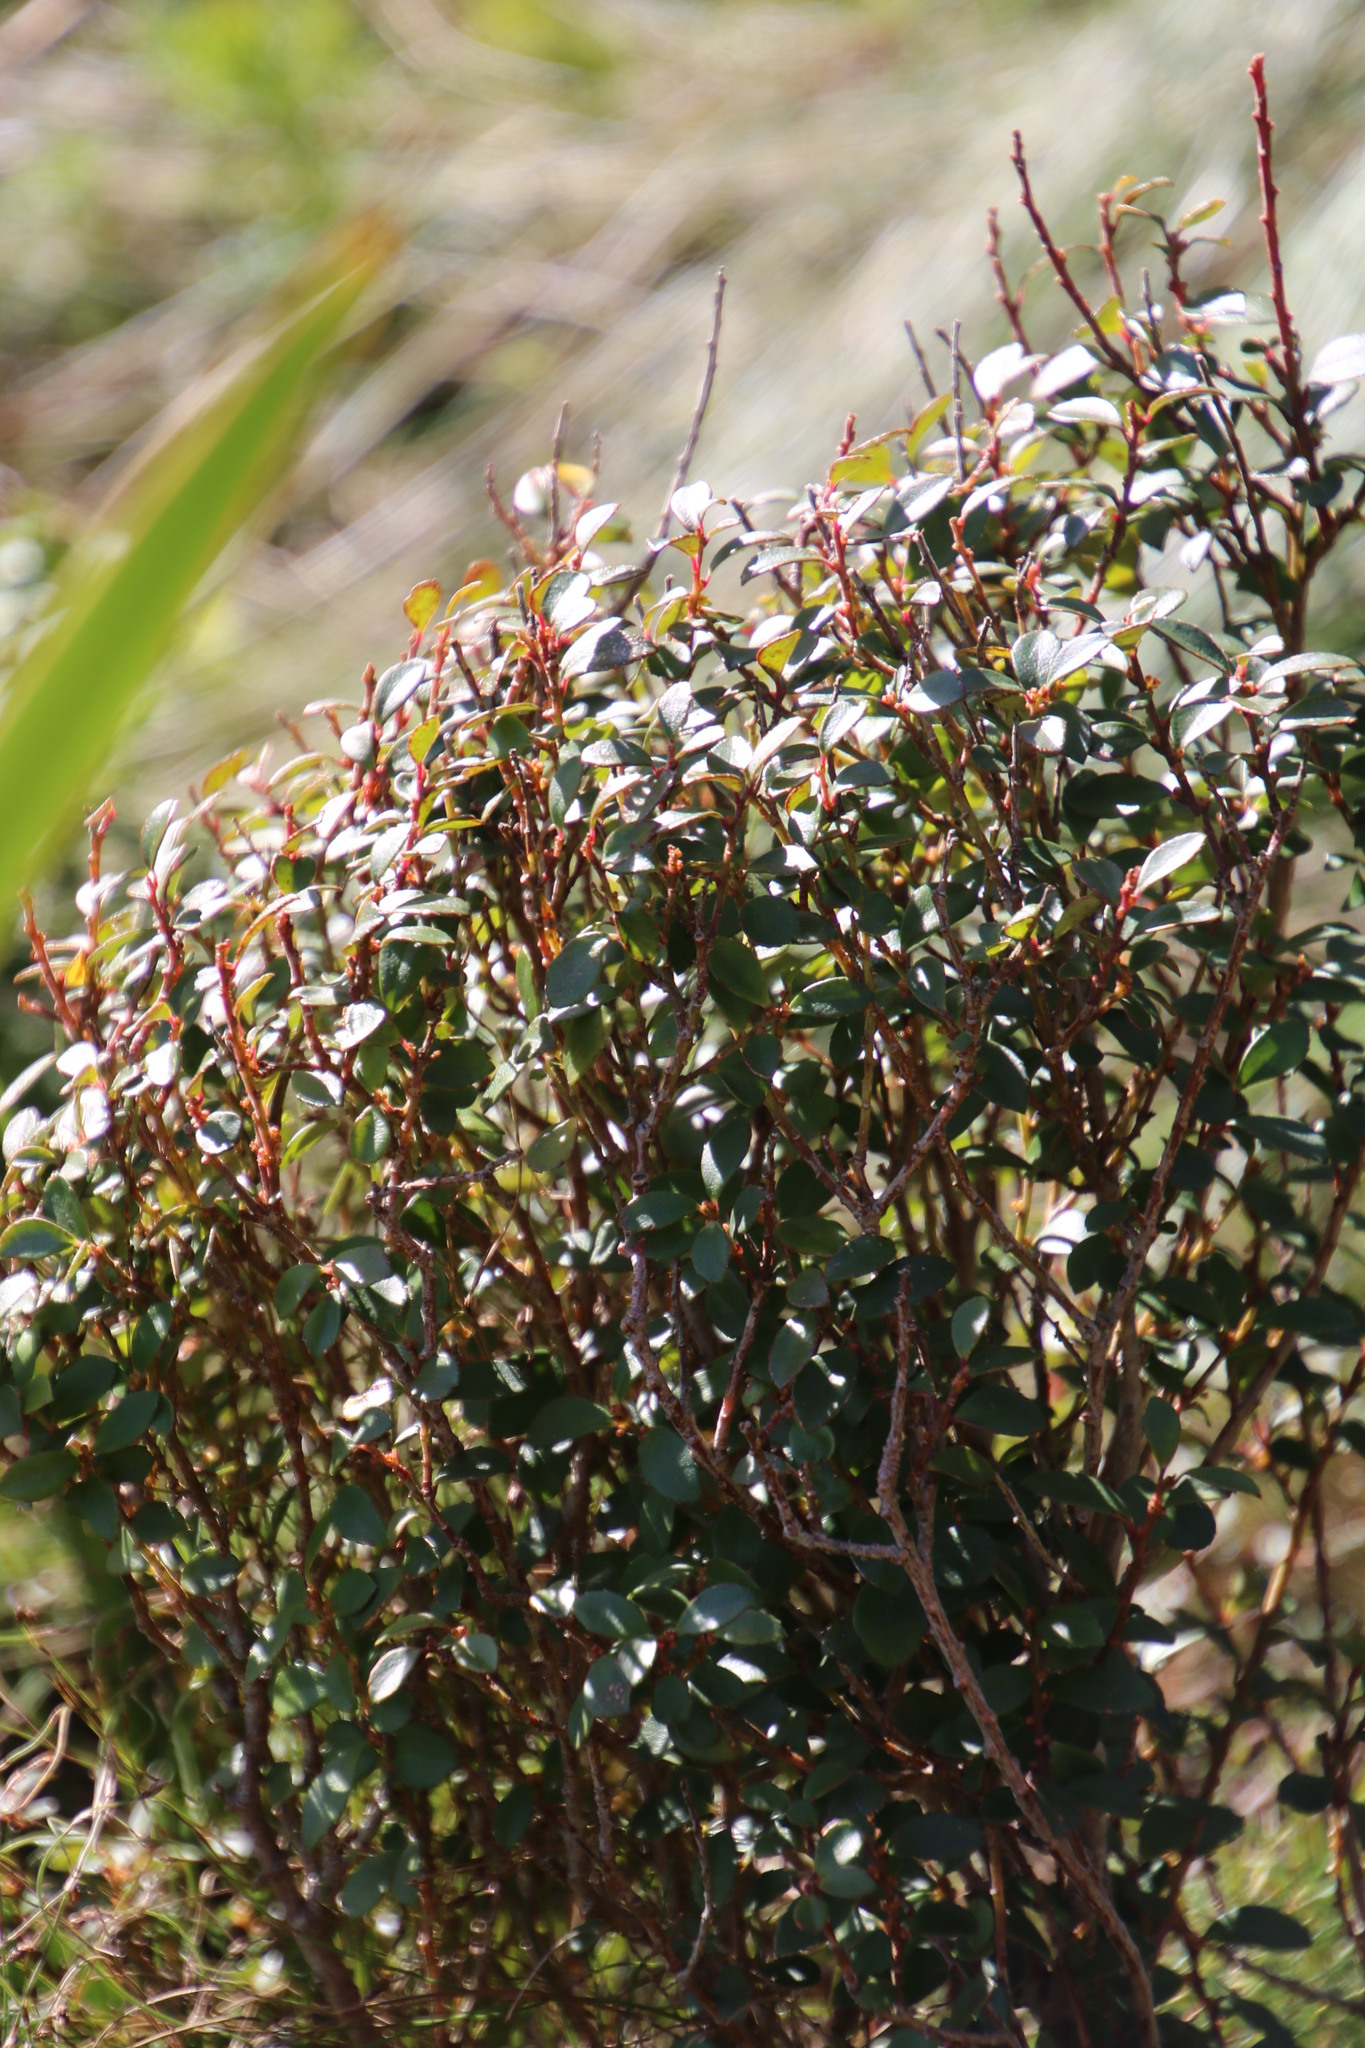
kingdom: Plantae
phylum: Tracheophyta
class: Magnoliopsida
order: Ericales
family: Primulaceae
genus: Myrsine
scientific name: Myrsine africana
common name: African-boxwood
